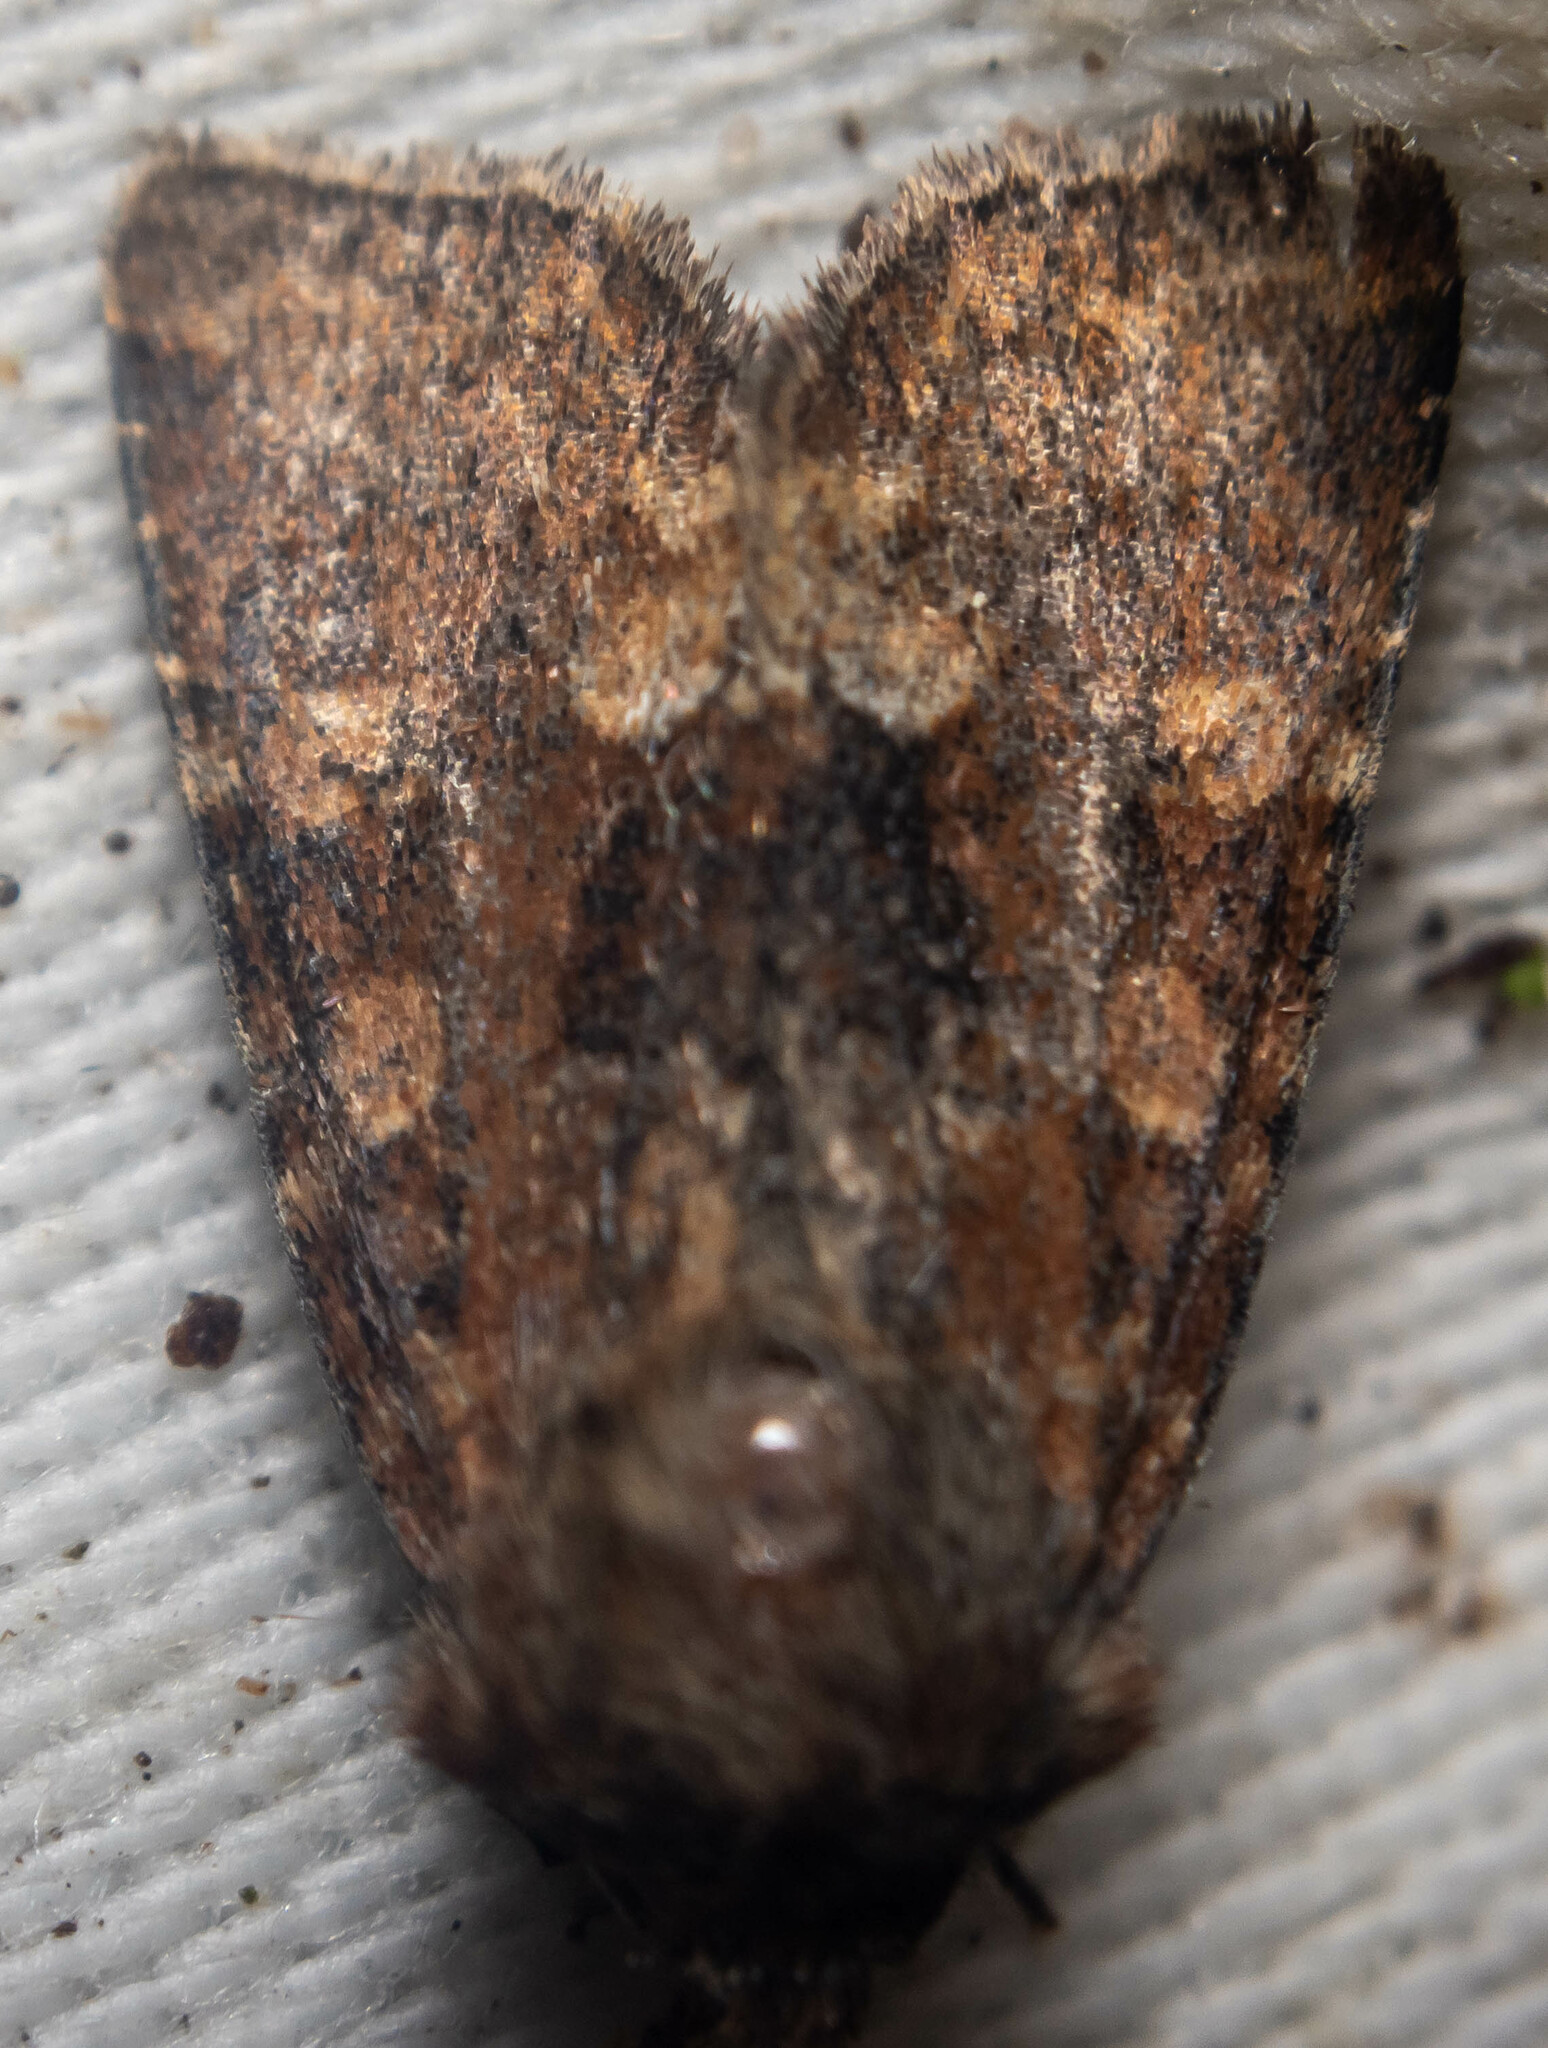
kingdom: Animalia
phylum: Arthropoda
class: Insecta
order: Lepidoptera
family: Noctuidae
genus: Oligia
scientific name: Oligia fasciuncula
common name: Middle-barred minor
